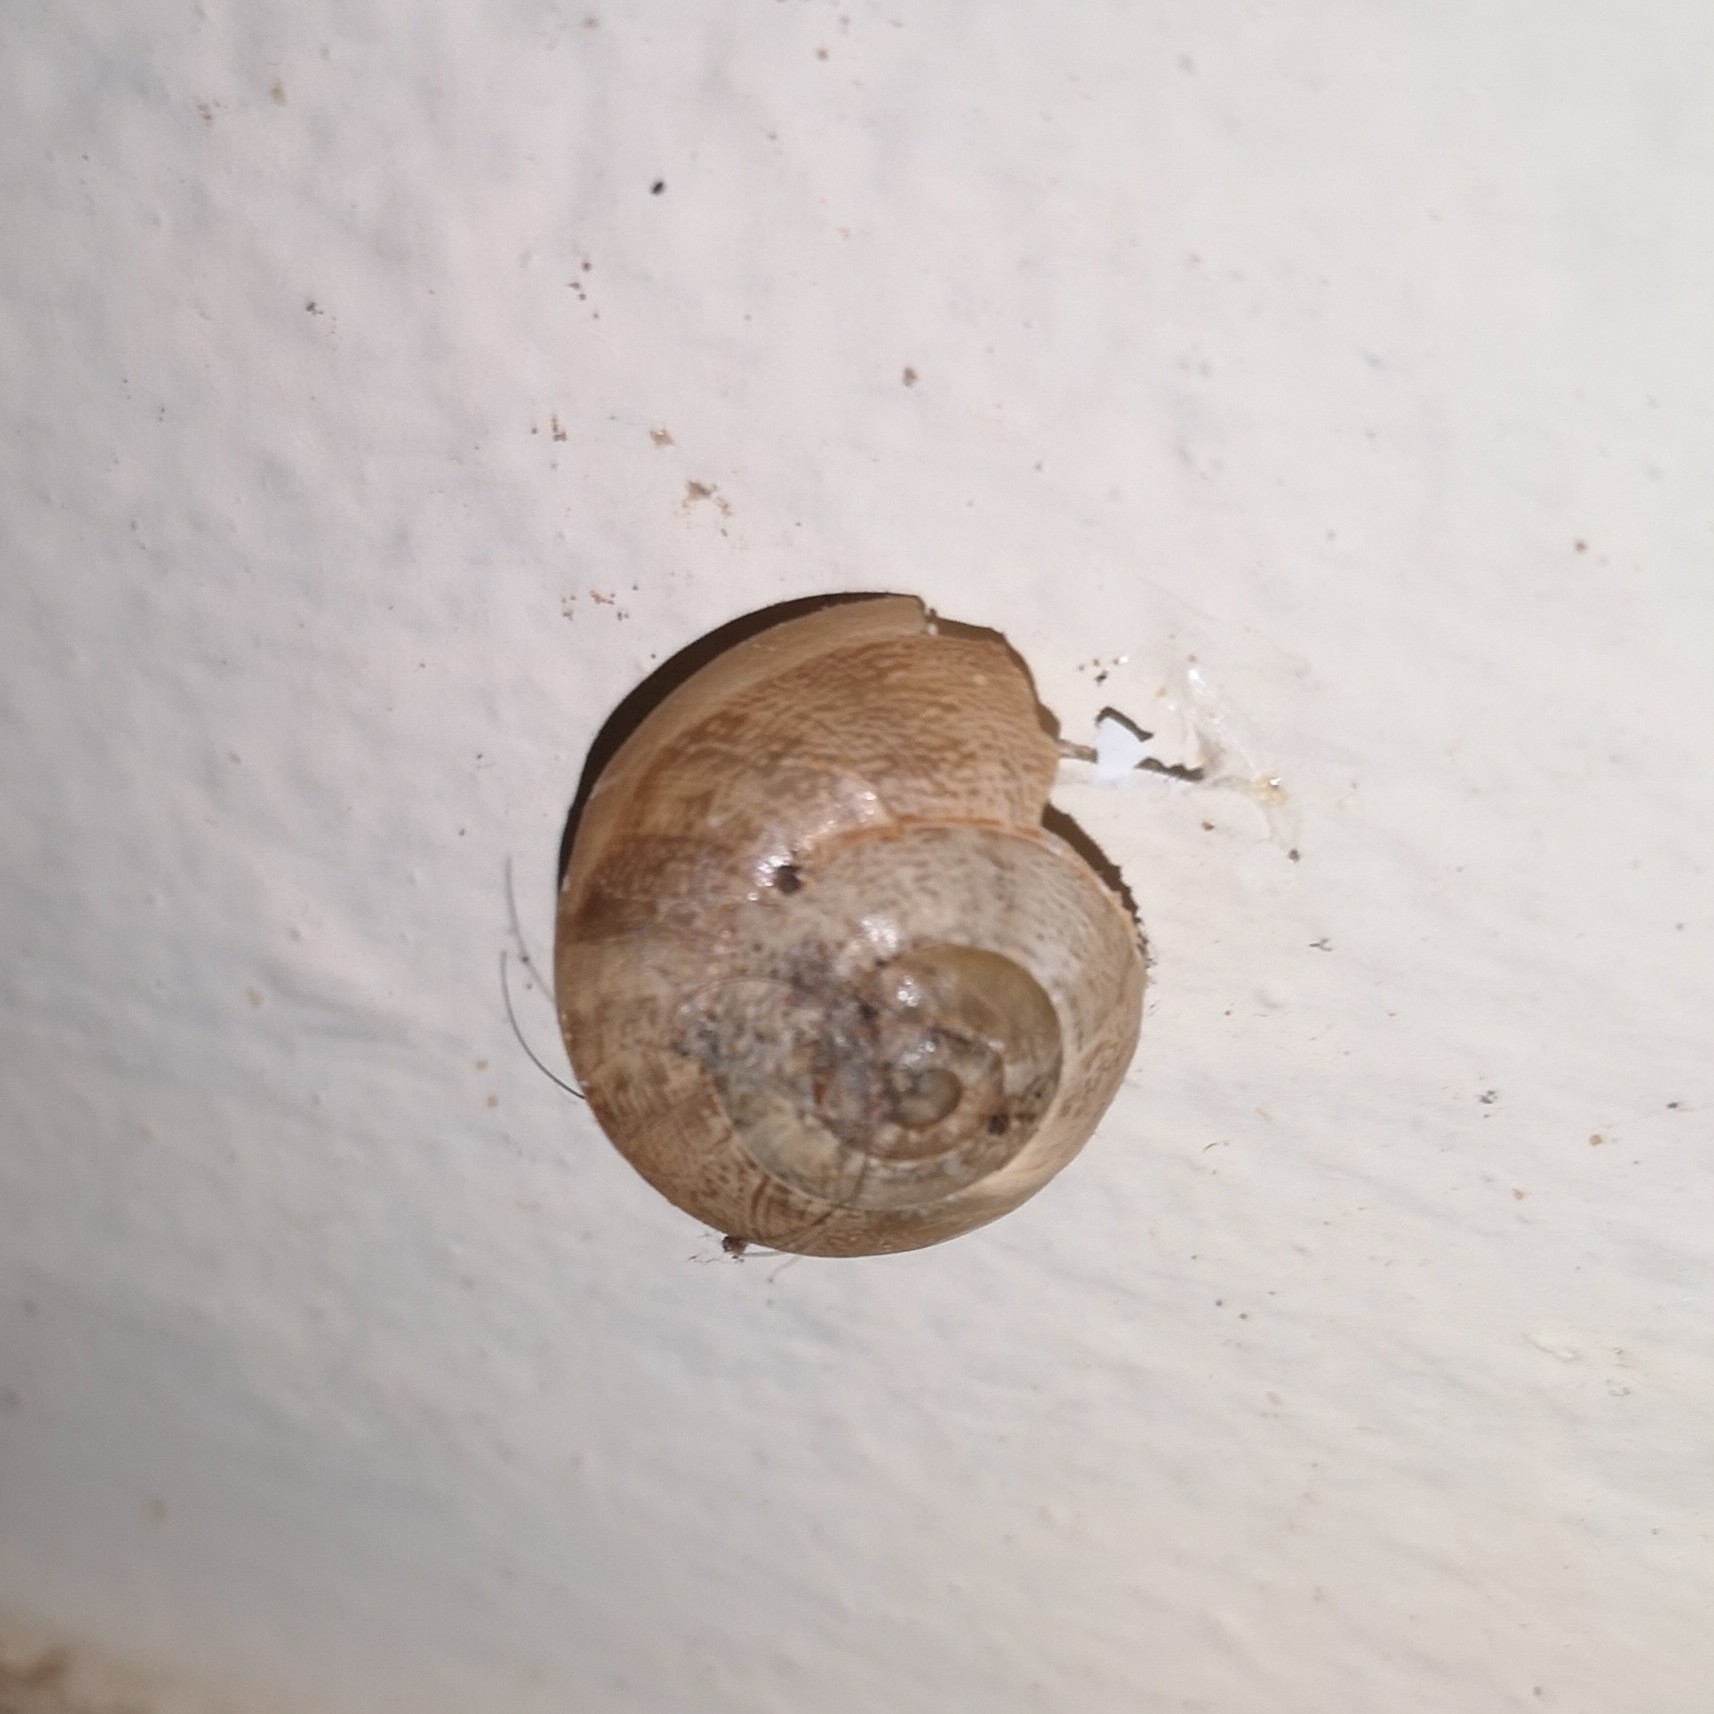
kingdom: Animalia
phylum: Mollusca
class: Gastropoda
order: Stylommatophora
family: Helicidae
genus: Eobania
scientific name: Eobania vermiculata
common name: Chocolateband snail
